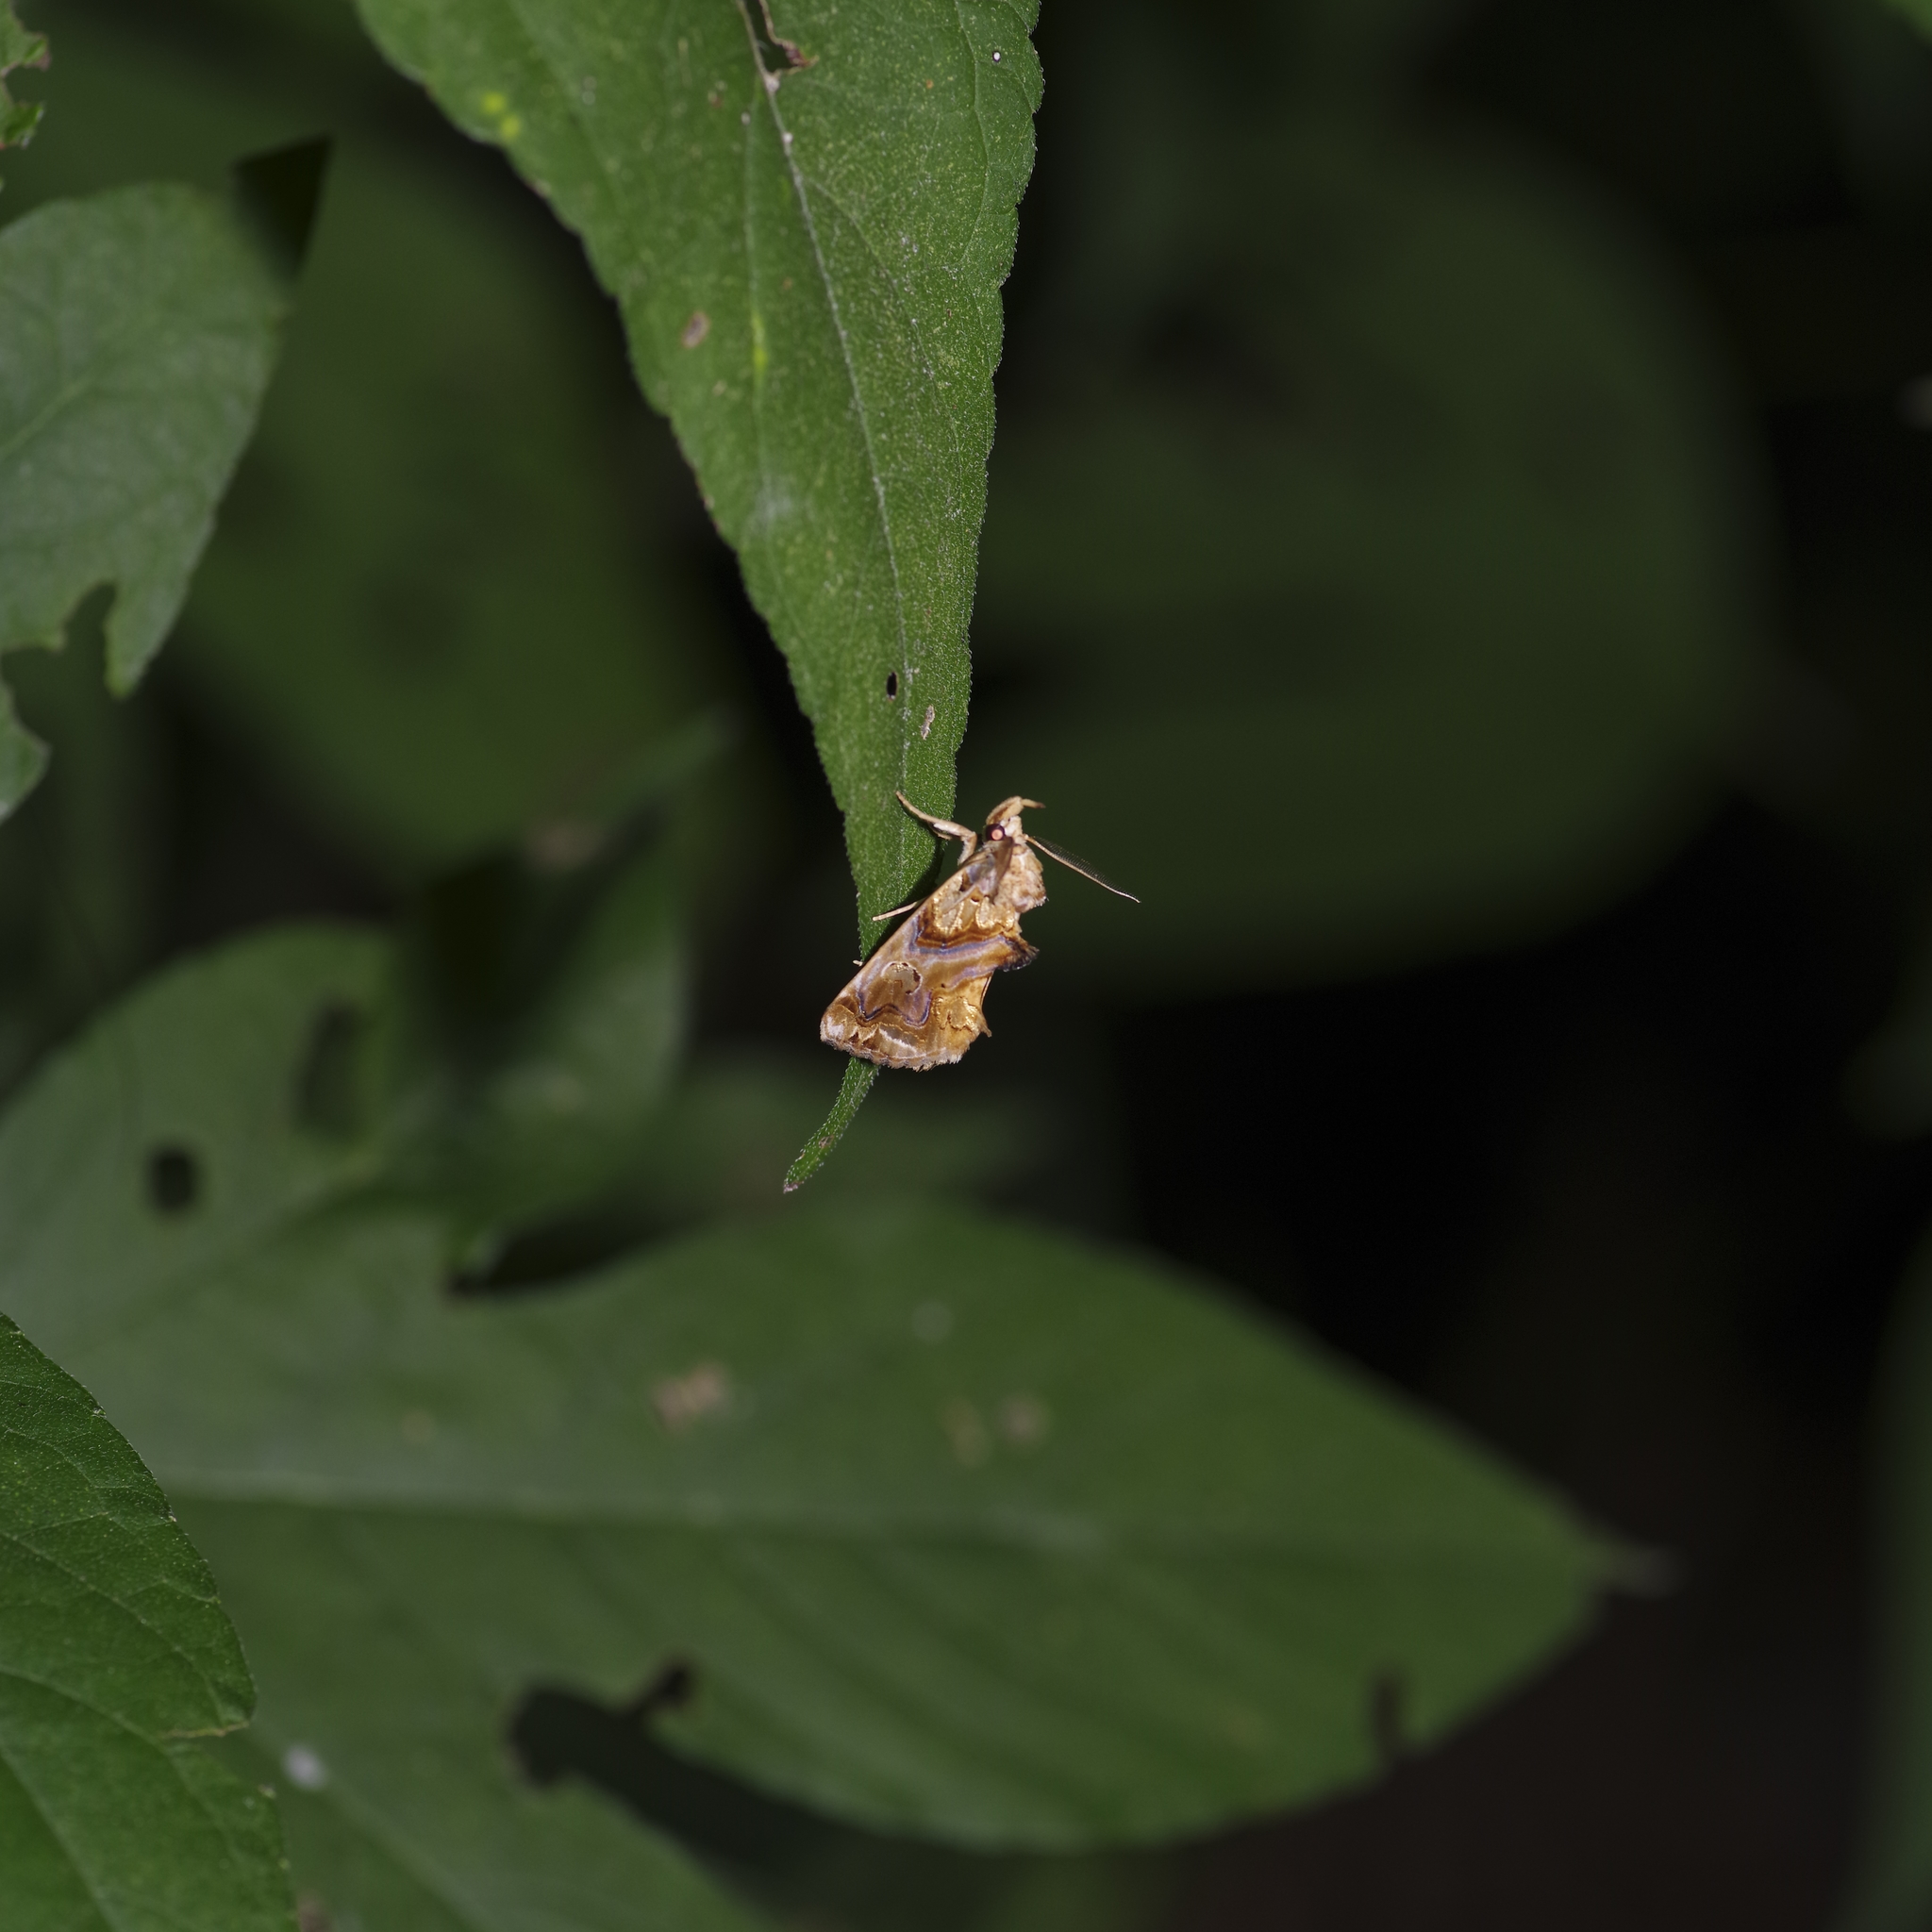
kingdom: Animalia
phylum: Arthropoda
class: Insecta
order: Lepidoptera
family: Erebidae
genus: Plusiodonta
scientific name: Plusiodonta compressipalpis
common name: Moonseed moth
